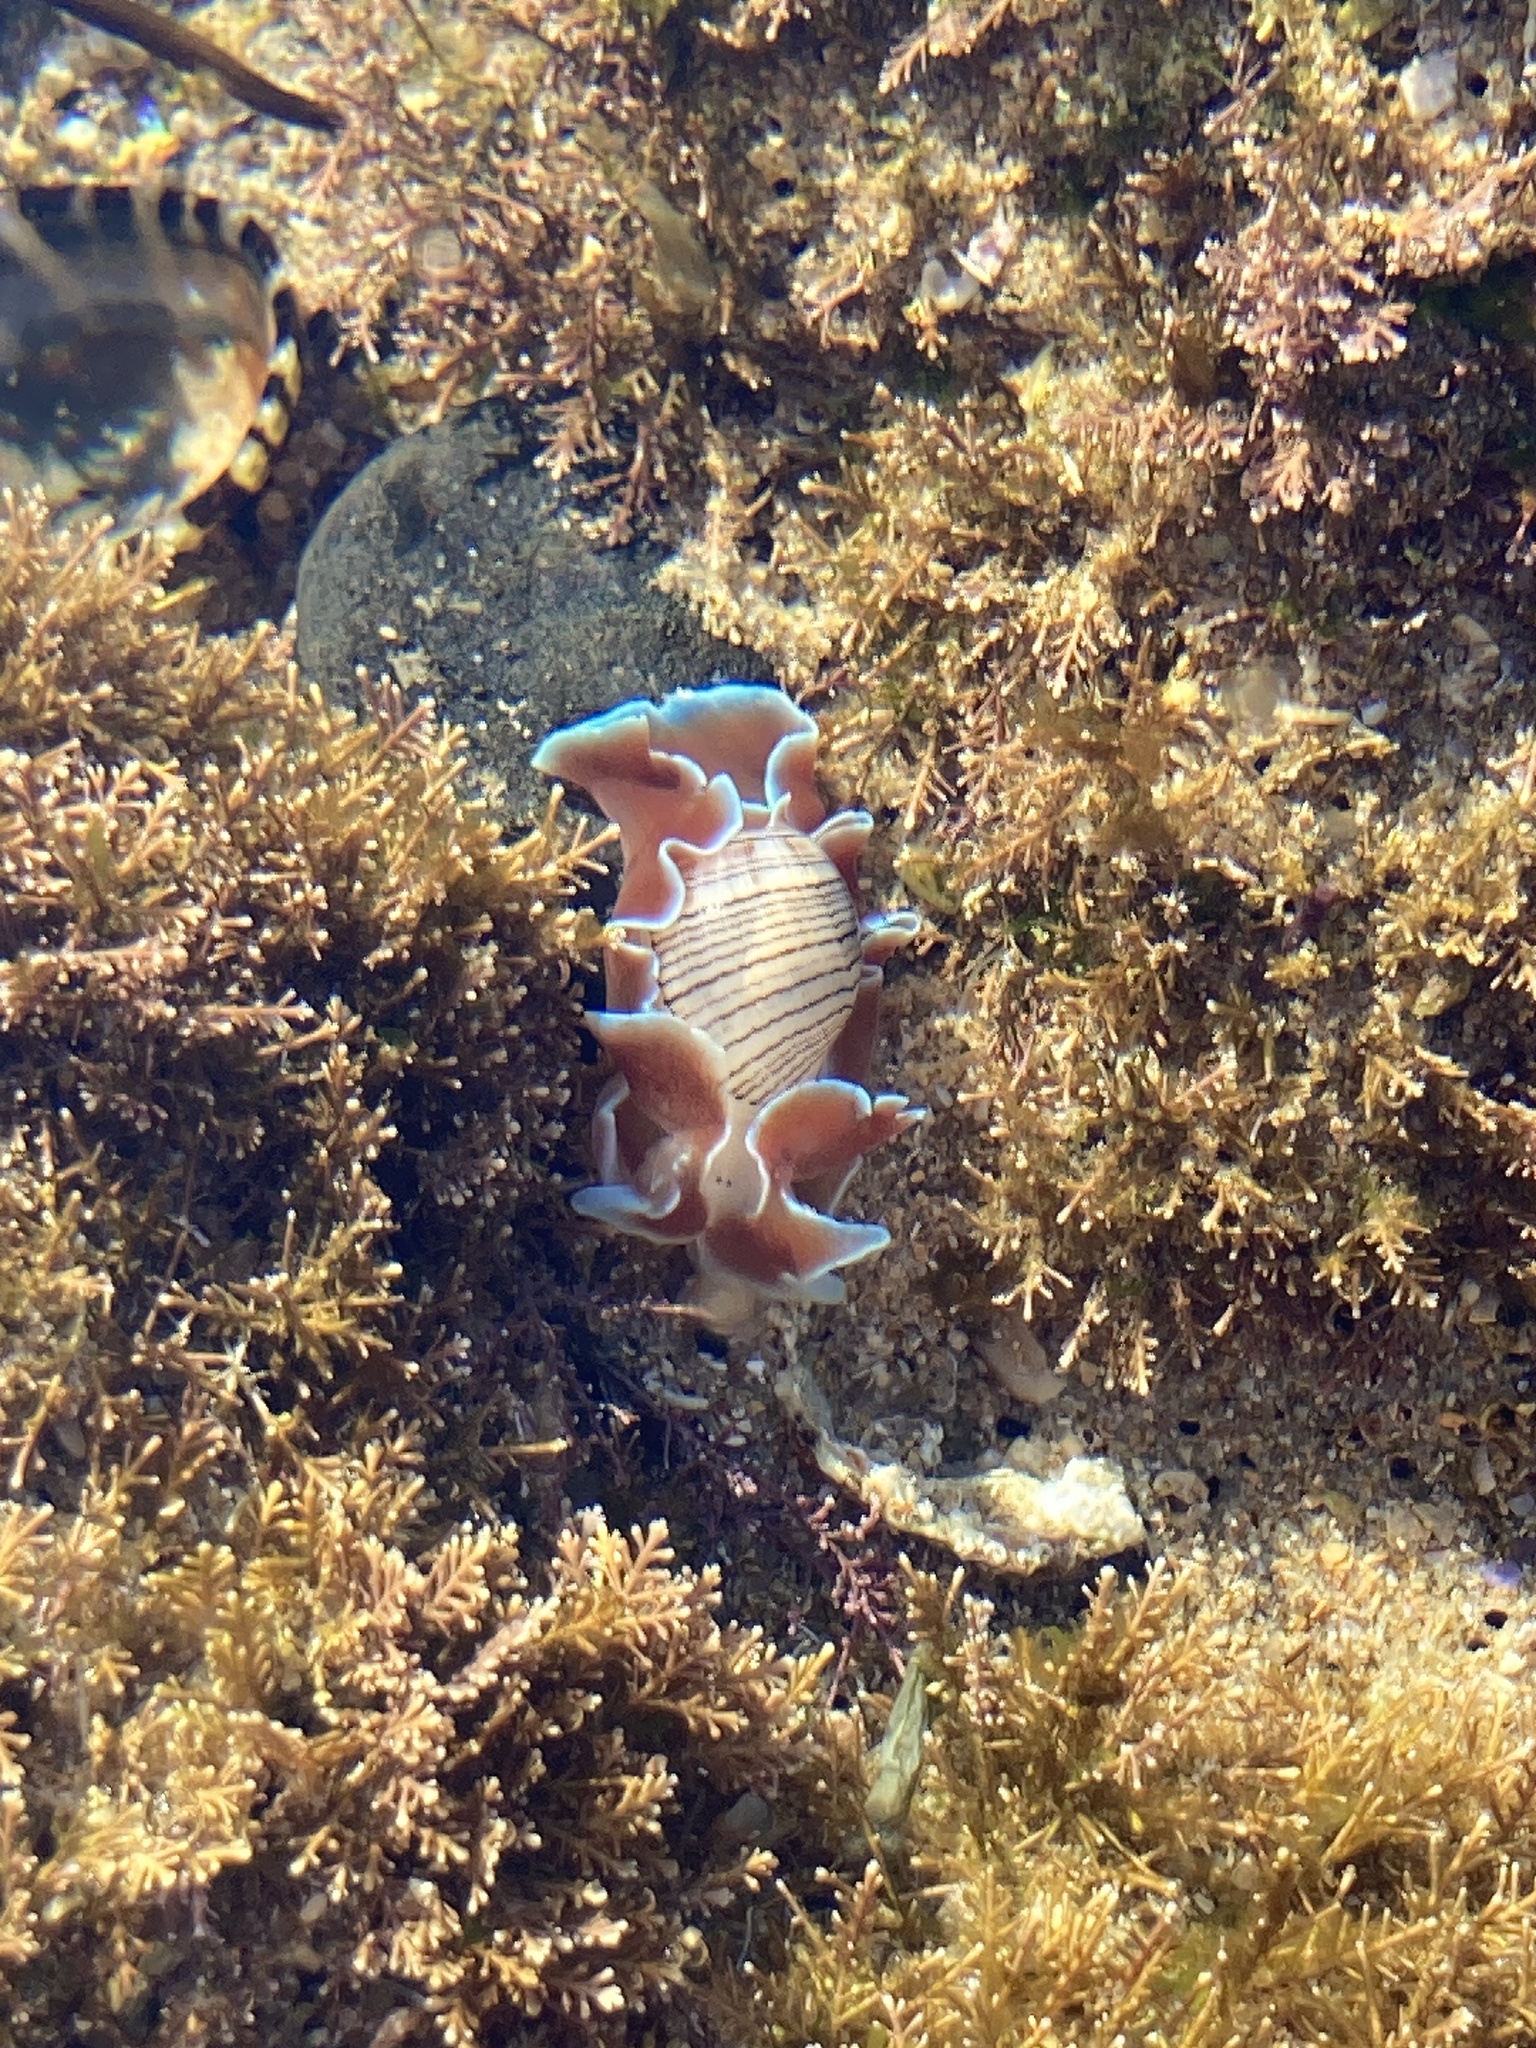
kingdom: Animalia
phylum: Mollusca
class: Gastropoda
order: Cephalaspidea
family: Aplustridae
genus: Hydatina
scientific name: Hydatina physis
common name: Brown-line paperbubble
